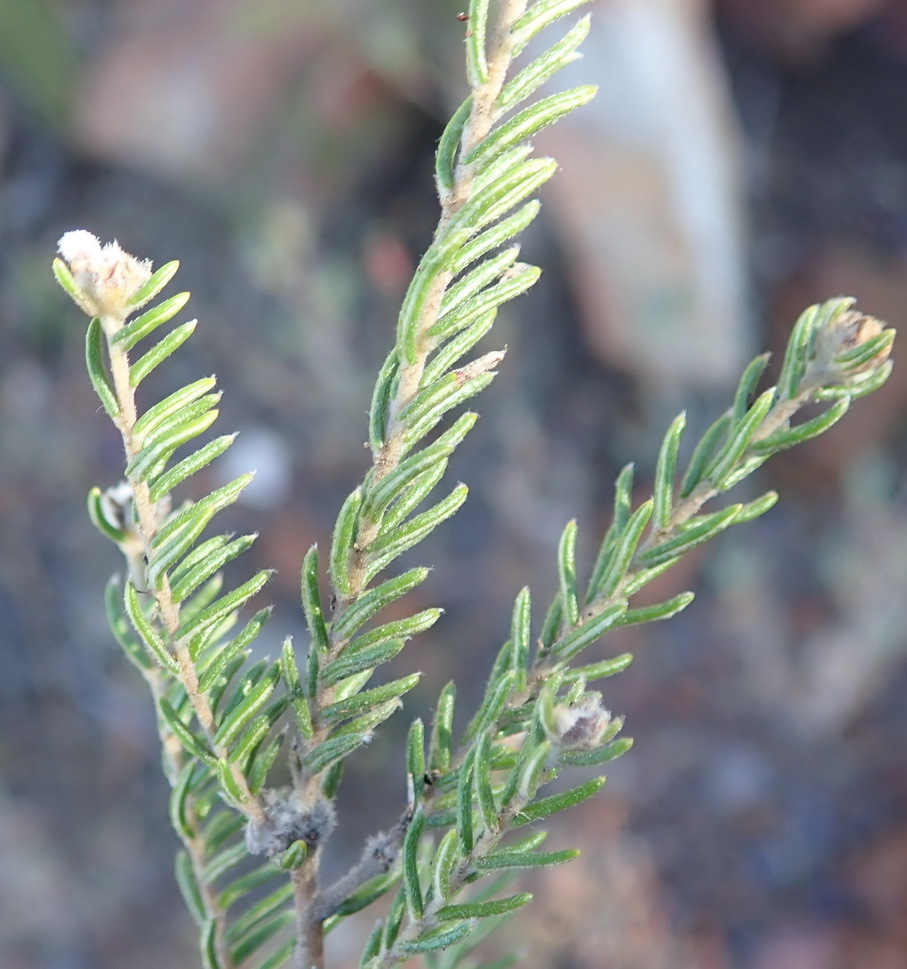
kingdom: Plantae
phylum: Tracheophyta
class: Magnoliopsida
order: Rosales
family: Rhamnaceae
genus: Phylica
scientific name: Phylica karroica
